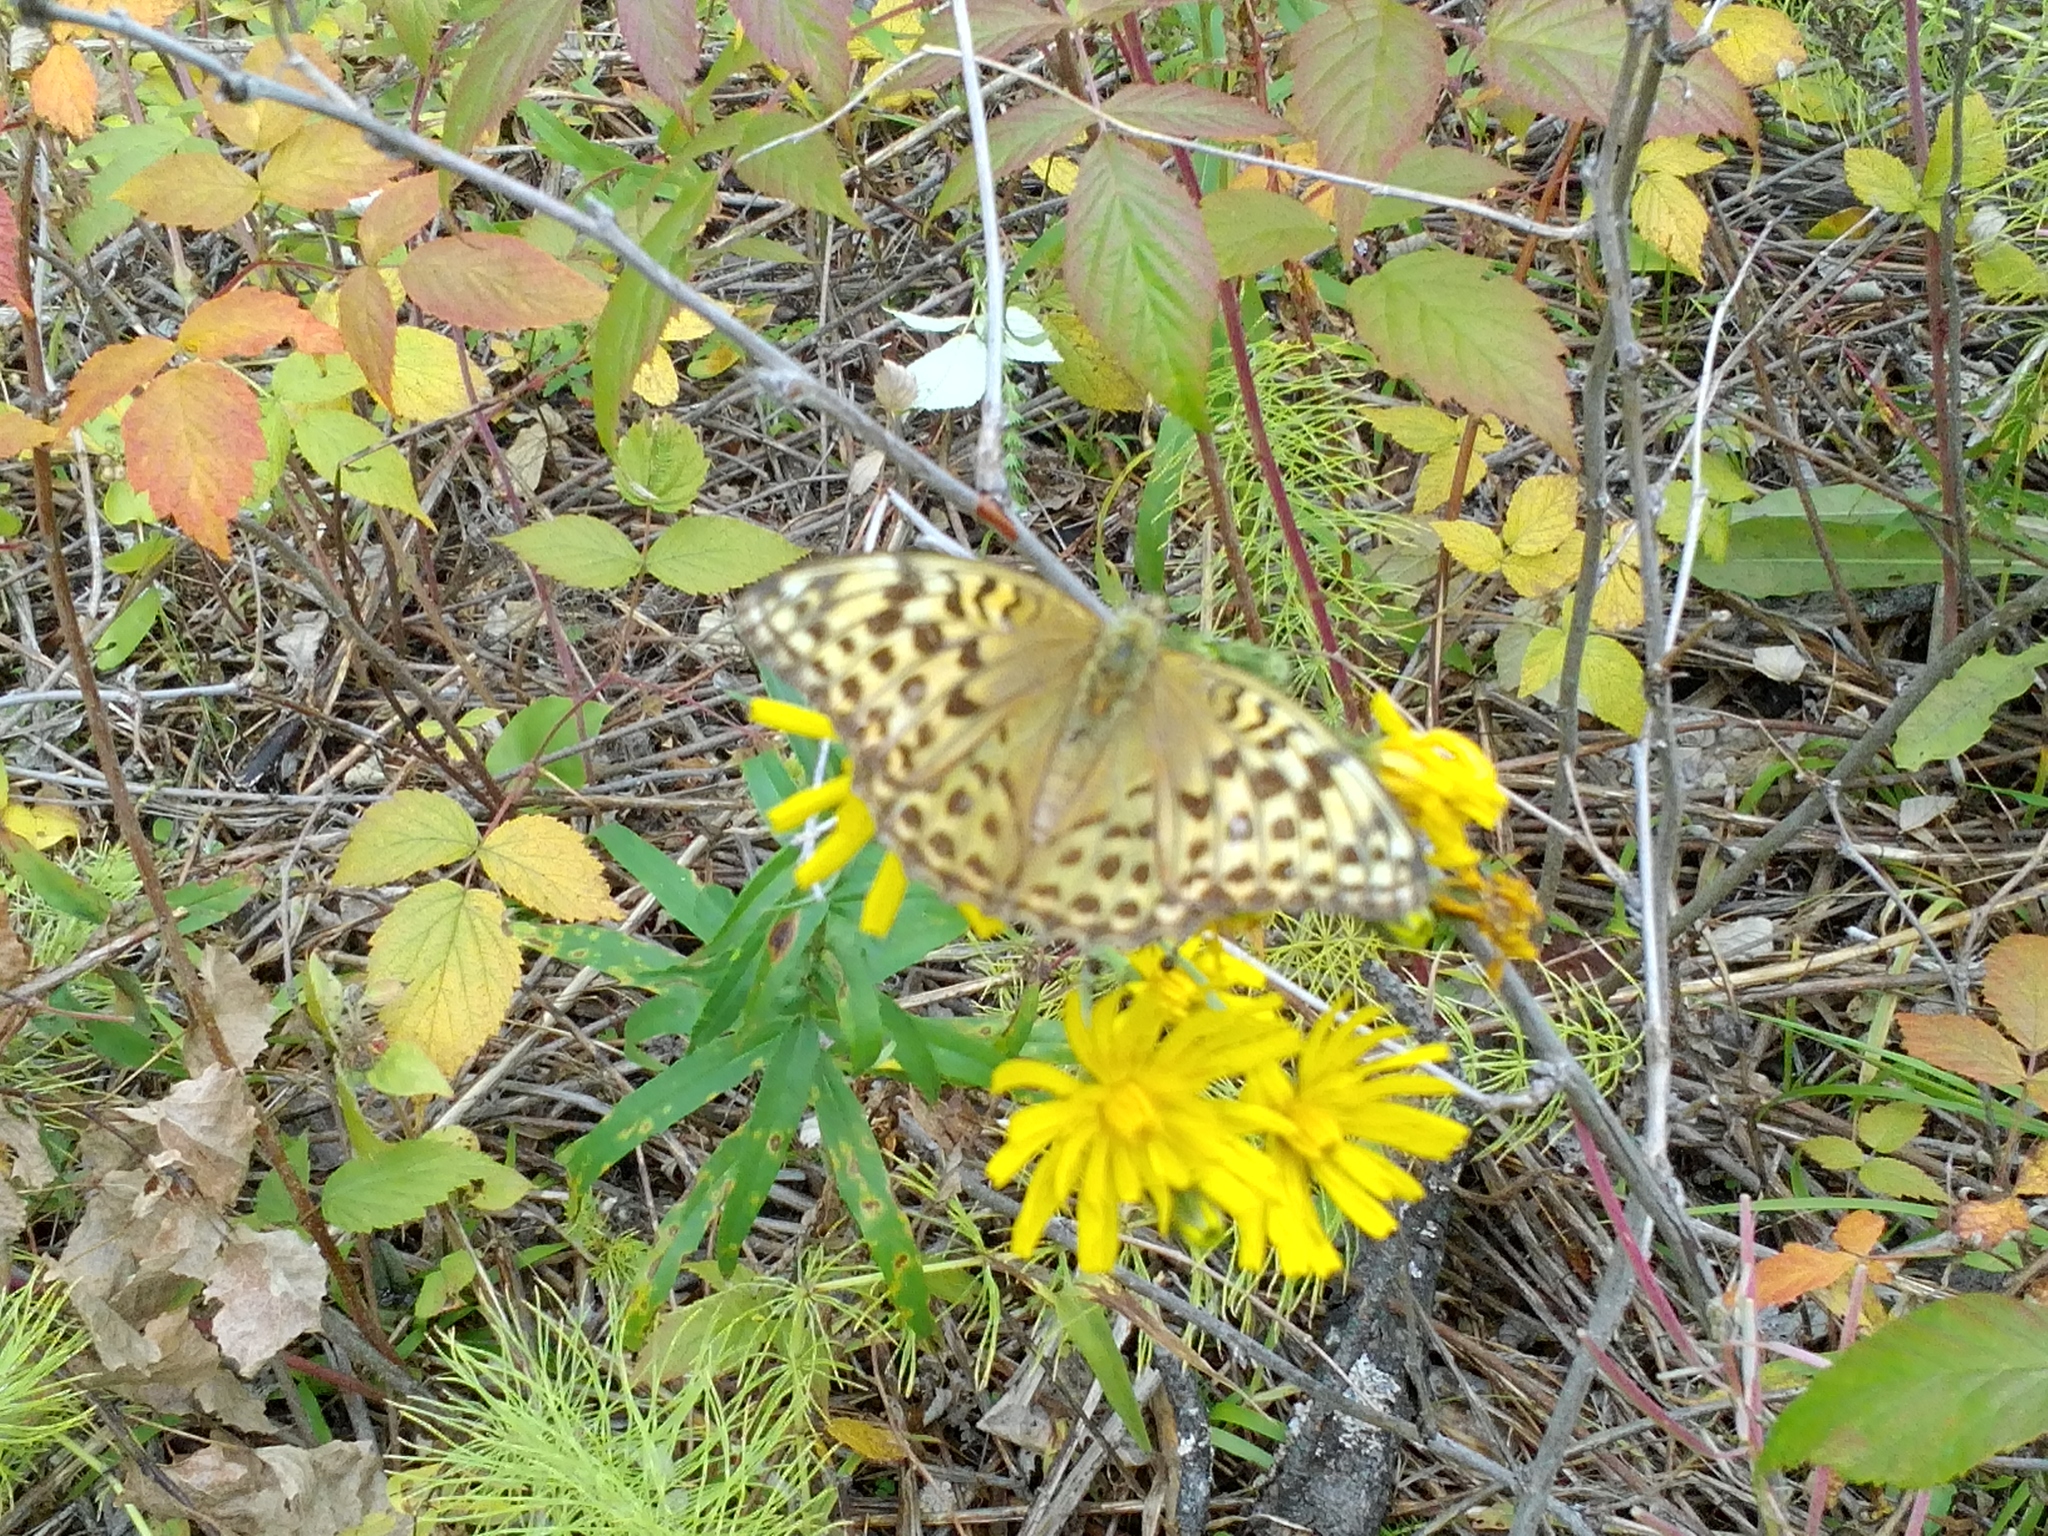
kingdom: Animalia
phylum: Arthropoda
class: Insecta
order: Lepidoptera
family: Nymphalidae
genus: Argynnis
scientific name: Argynnis paphia
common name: Silver-washed fritillary
